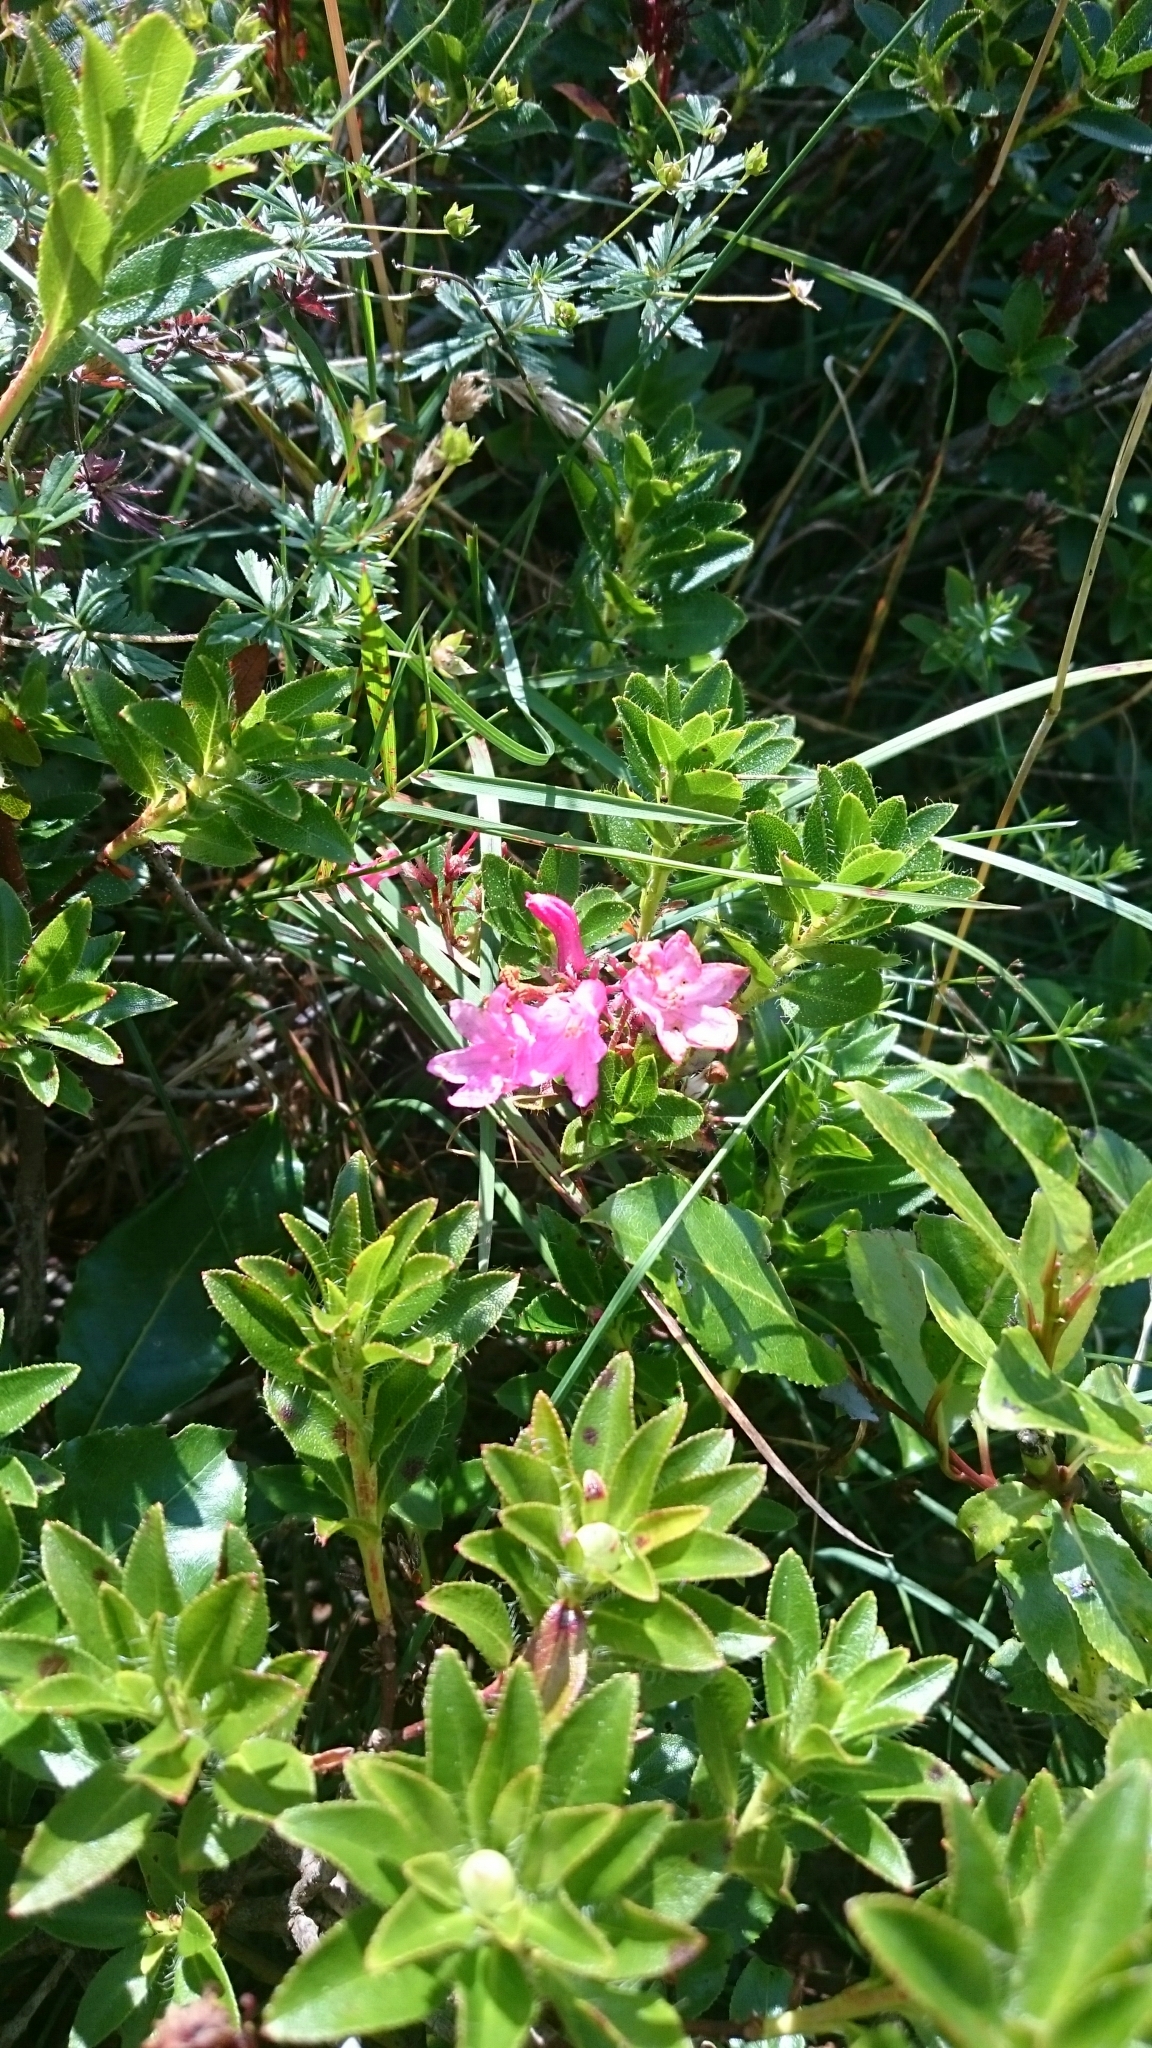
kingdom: Plantae
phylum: Tracheophyta
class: Magnoliopsida
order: Ericales
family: Ericaceae
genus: Rhododendron
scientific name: Rhododendron hirsutum
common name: Hairy alpenrose
